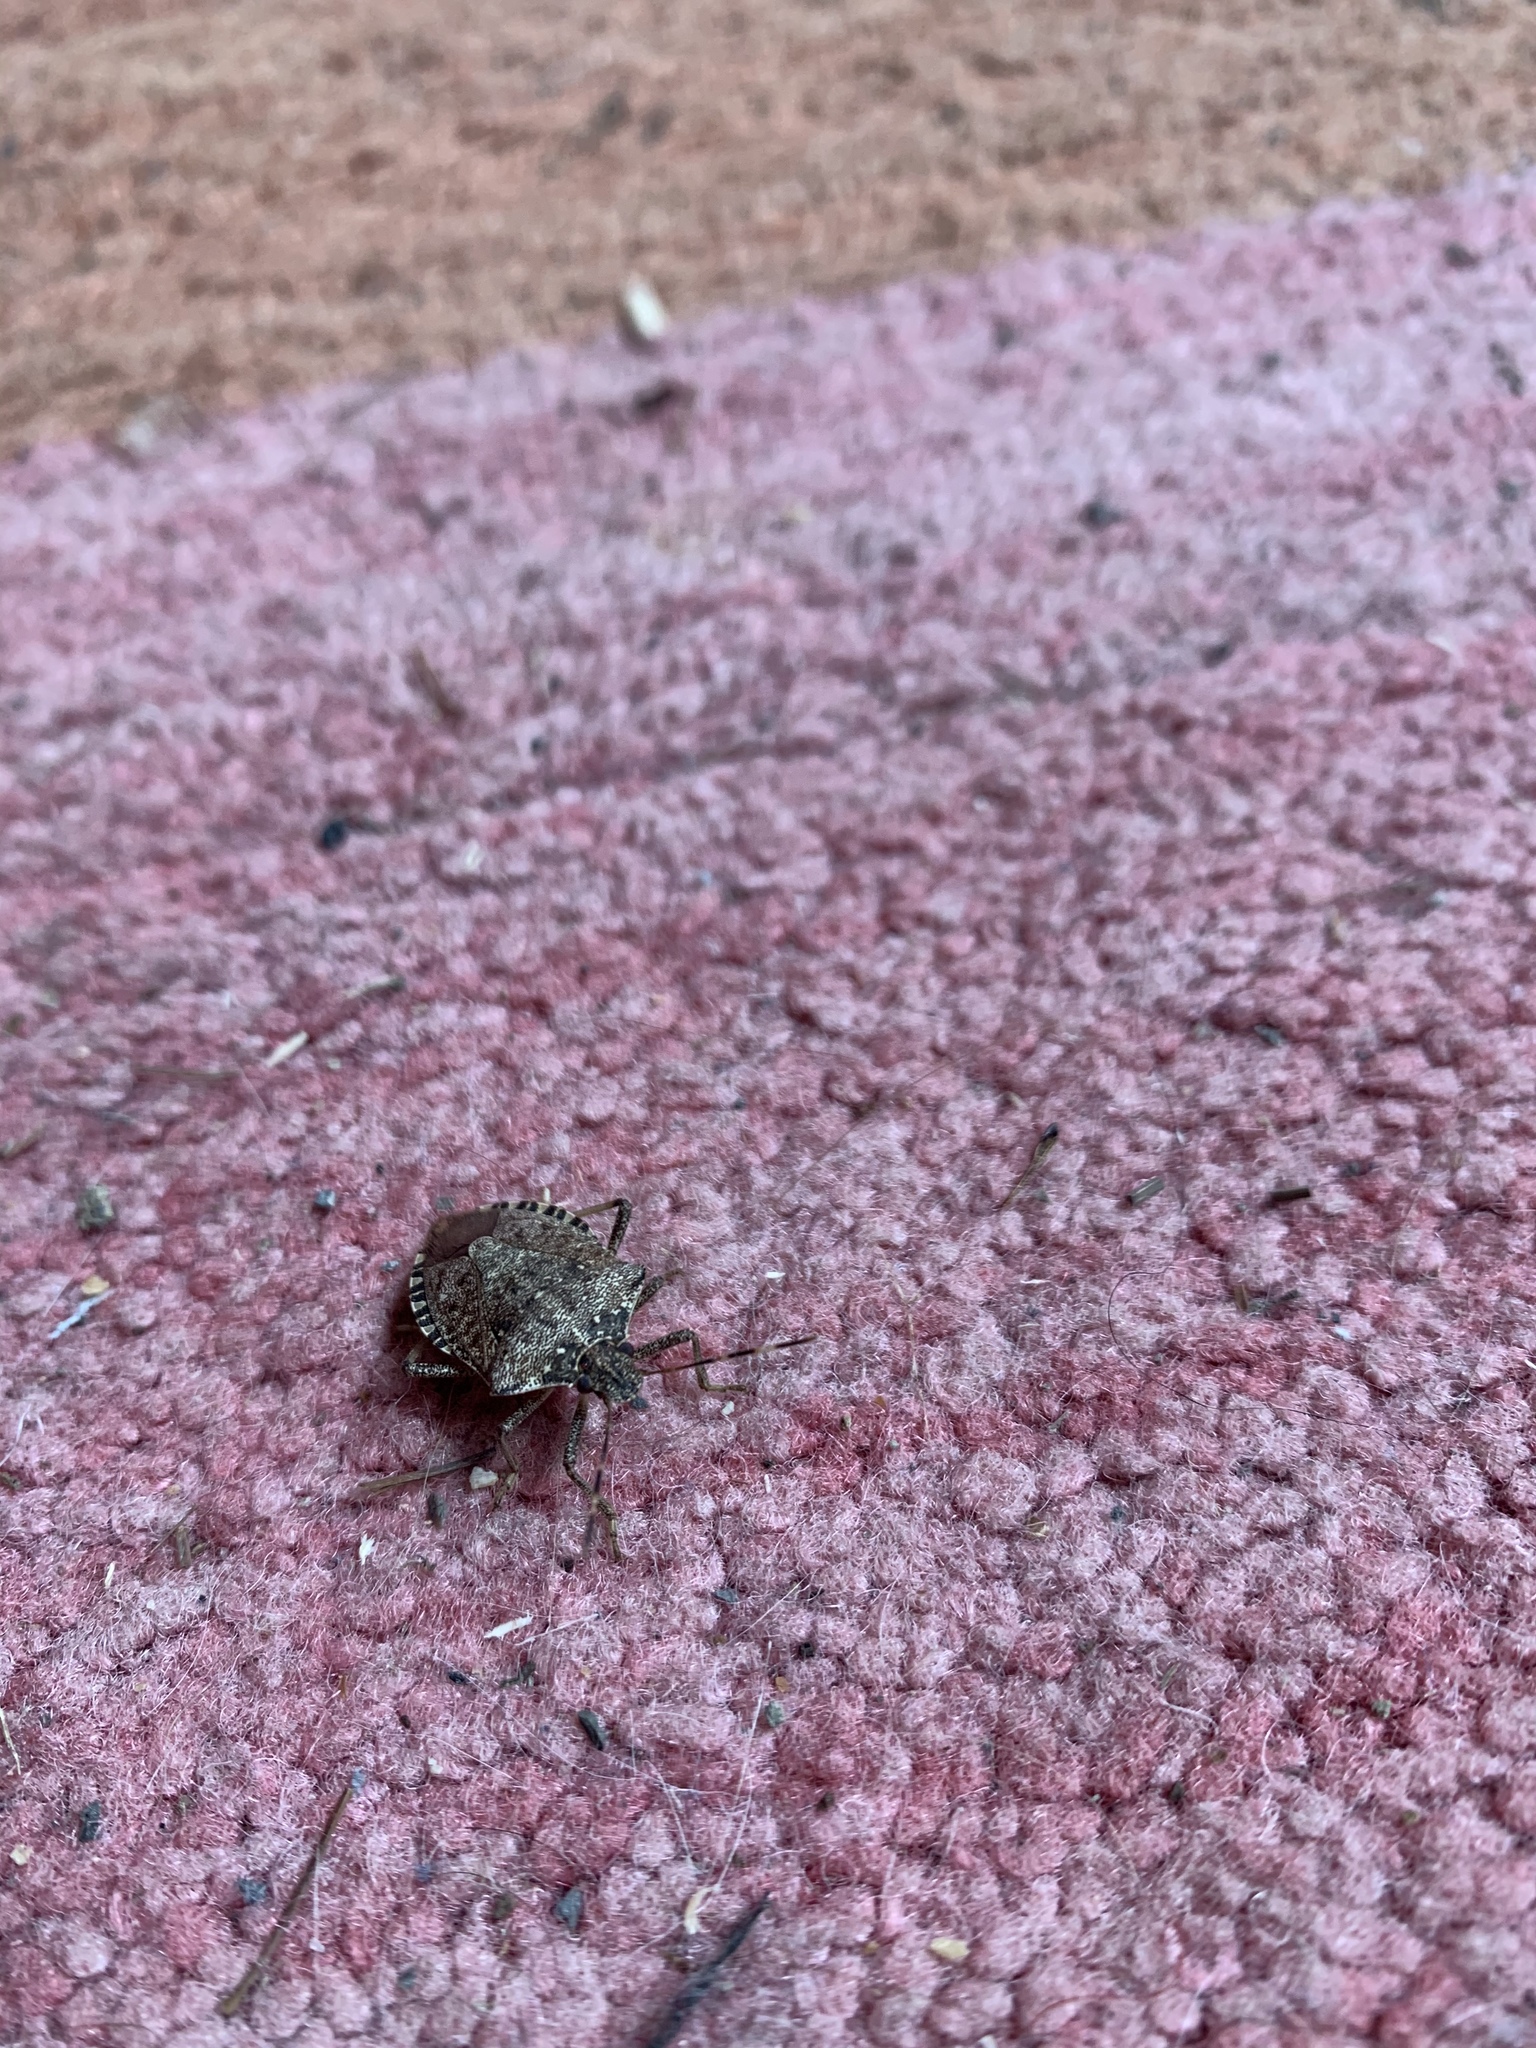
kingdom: Animalia
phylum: Arthropoda
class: Insecta
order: Hemiptera
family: Pentatomidae
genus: Halyomorpha
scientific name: Halyomorpha halys
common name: Brown marmorated stink bug
